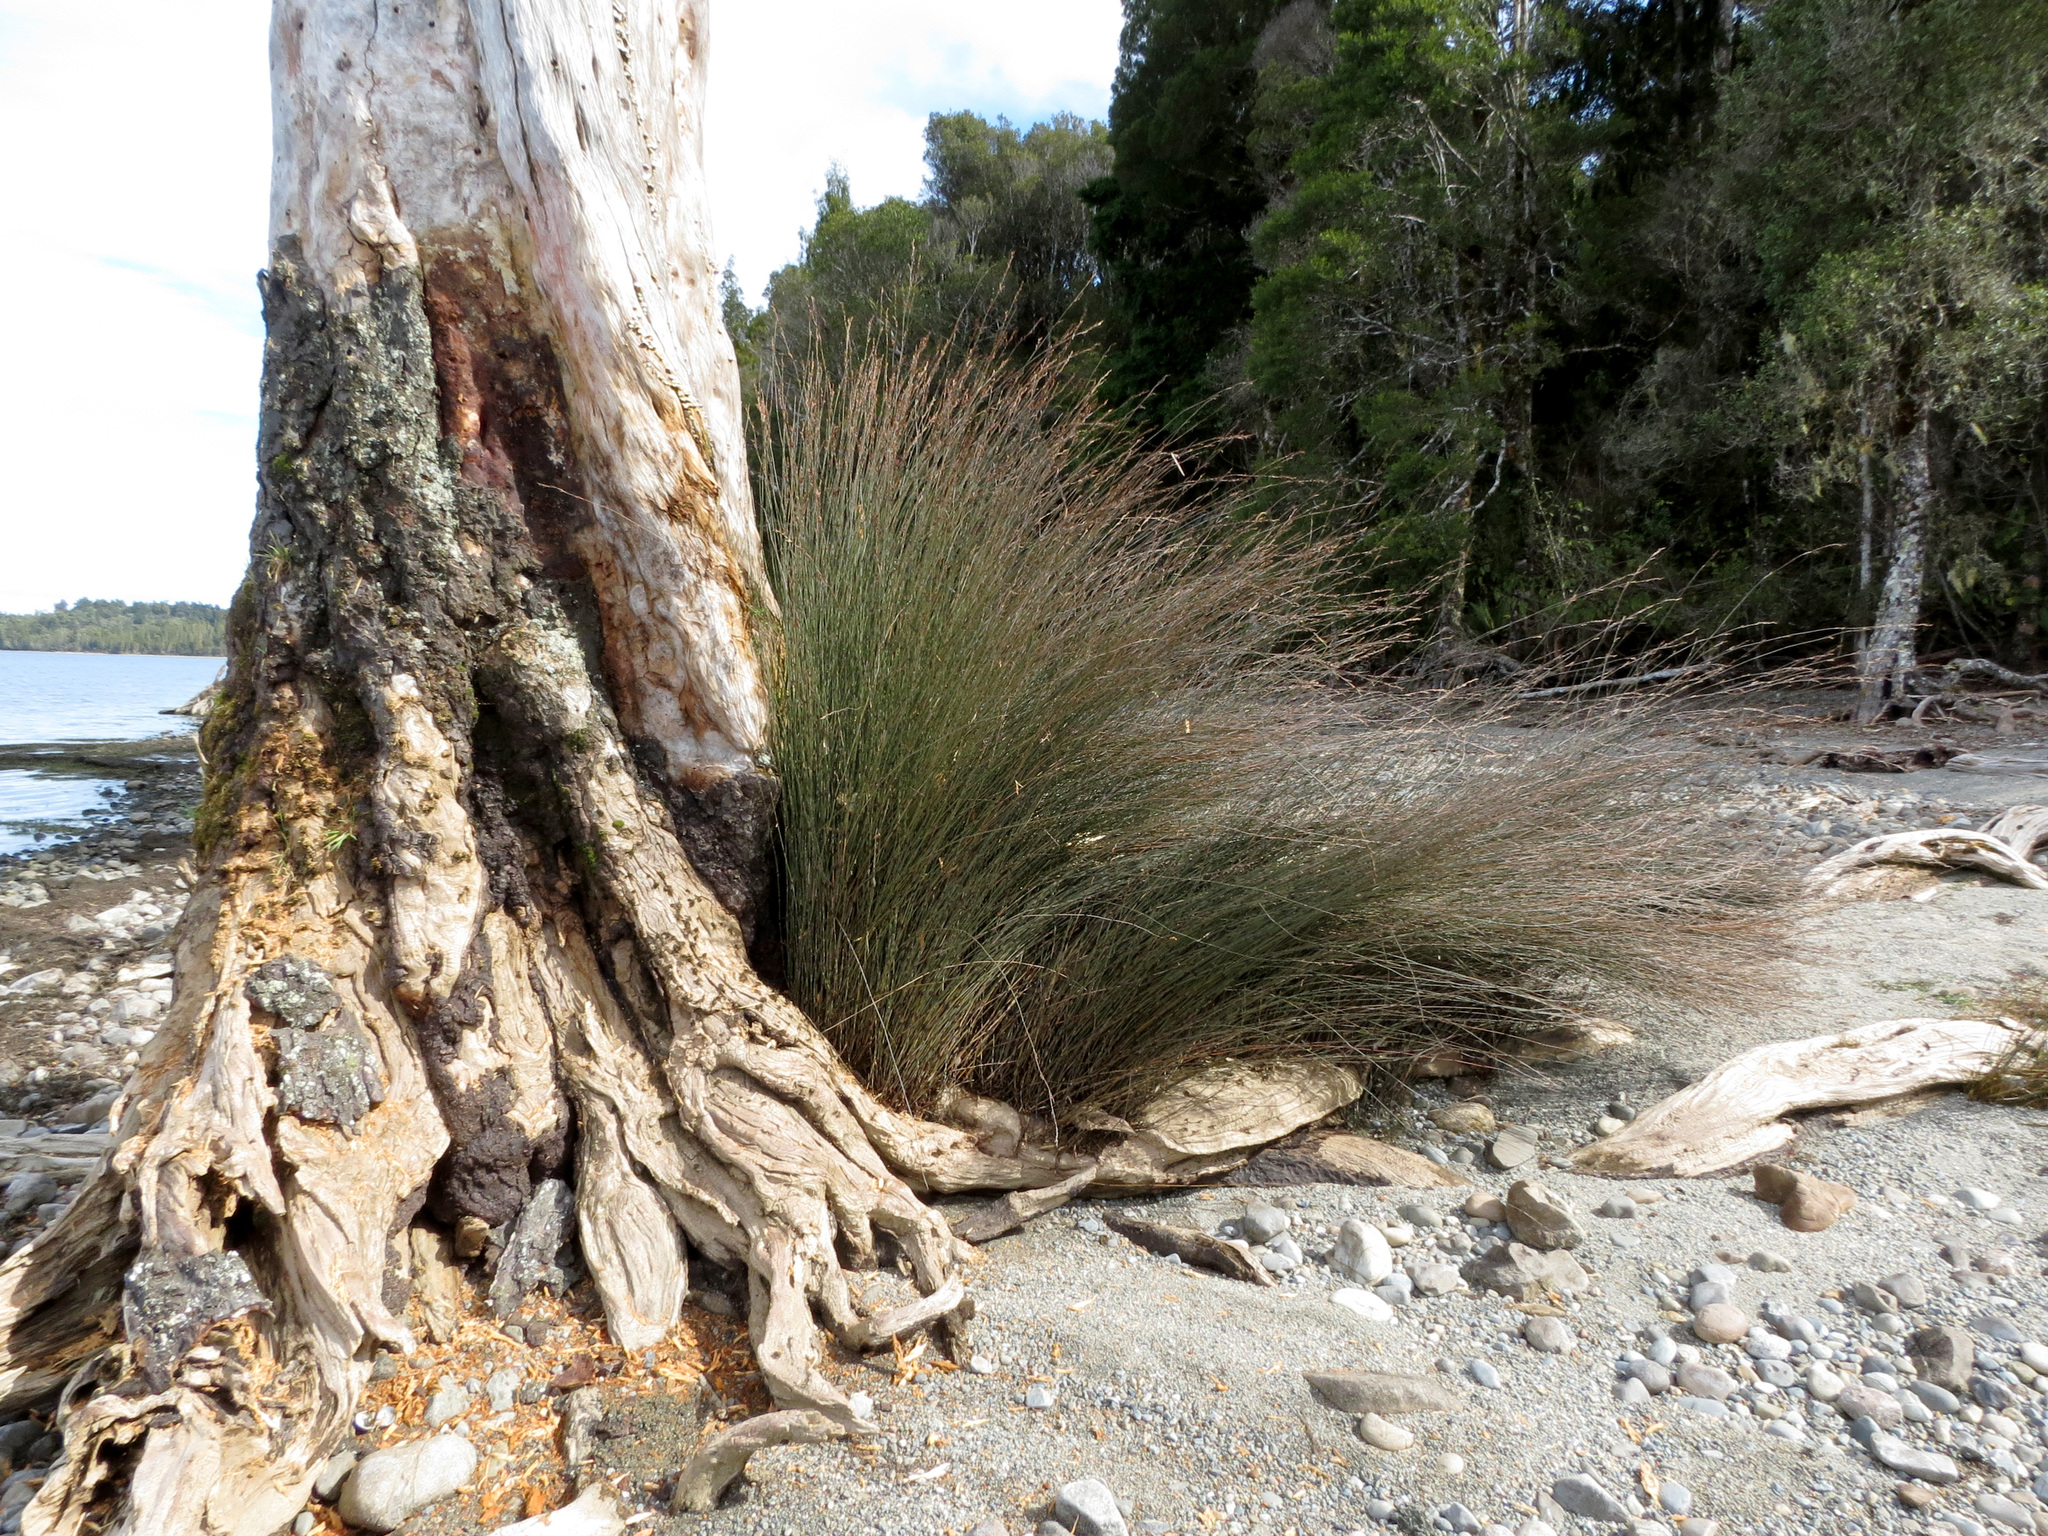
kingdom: Plantae
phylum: Tracheophyta
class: Liliopsida
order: Poales
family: Restionaceae
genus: Apodasmia
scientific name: Apodasmia similis
